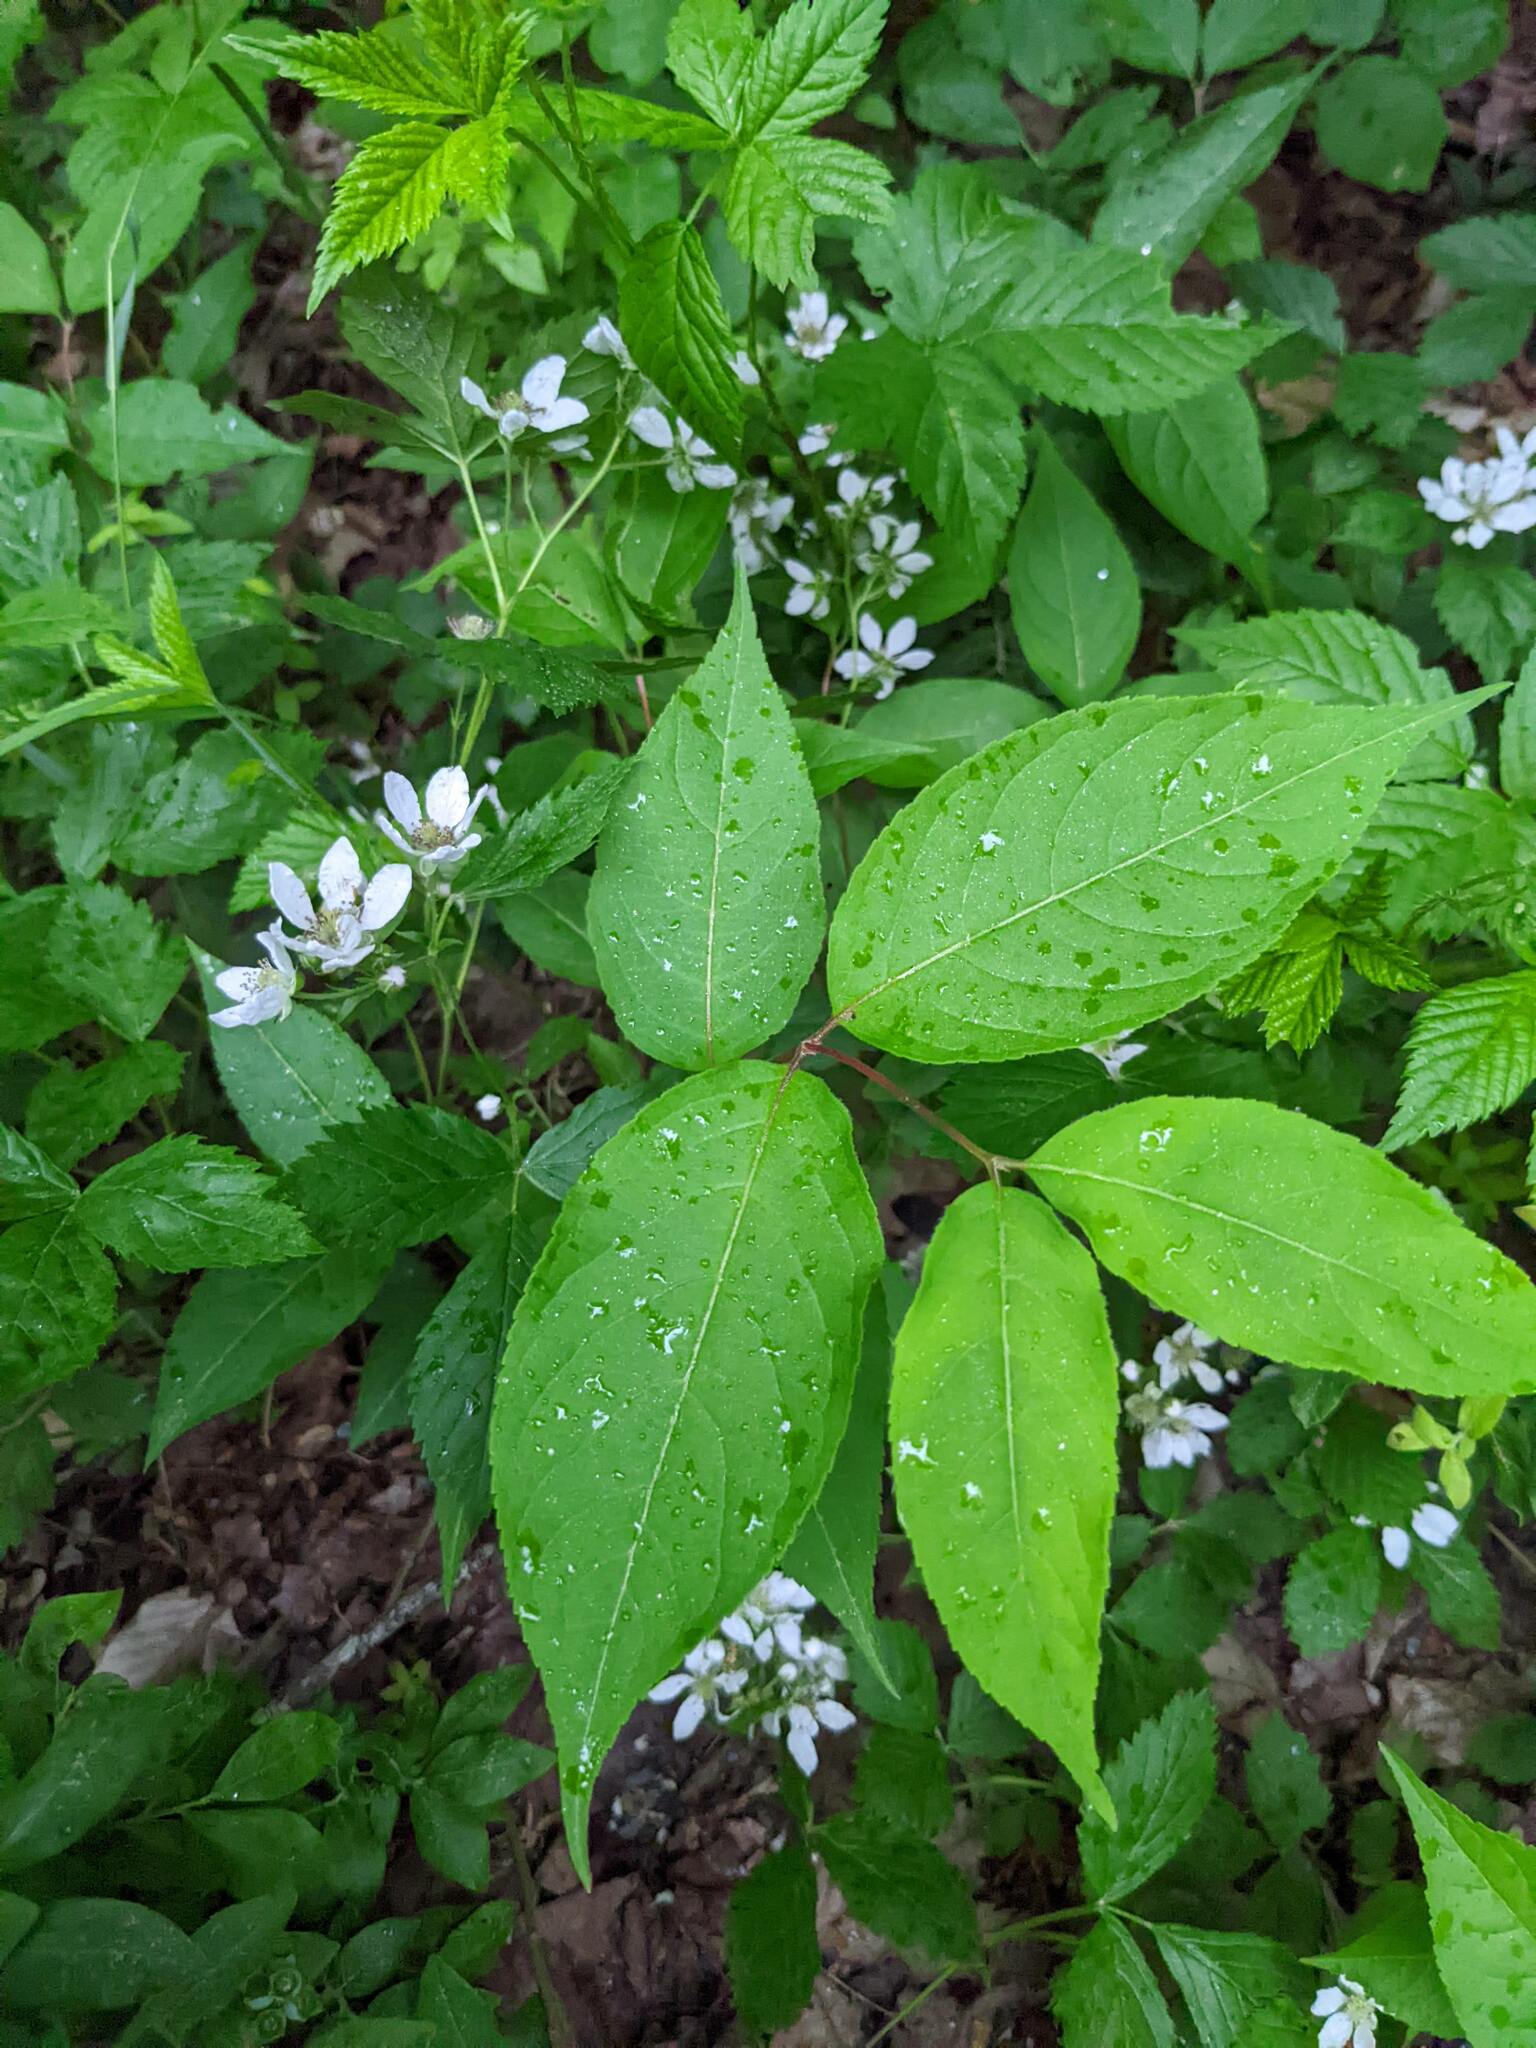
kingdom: Plantae
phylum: Tracheophyta
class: Magnoliopsida
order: Dipsacales
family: Caprifoliaceae
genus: Diervilla
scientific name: Diervilla lonicera
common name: Bush-honeysuckle
